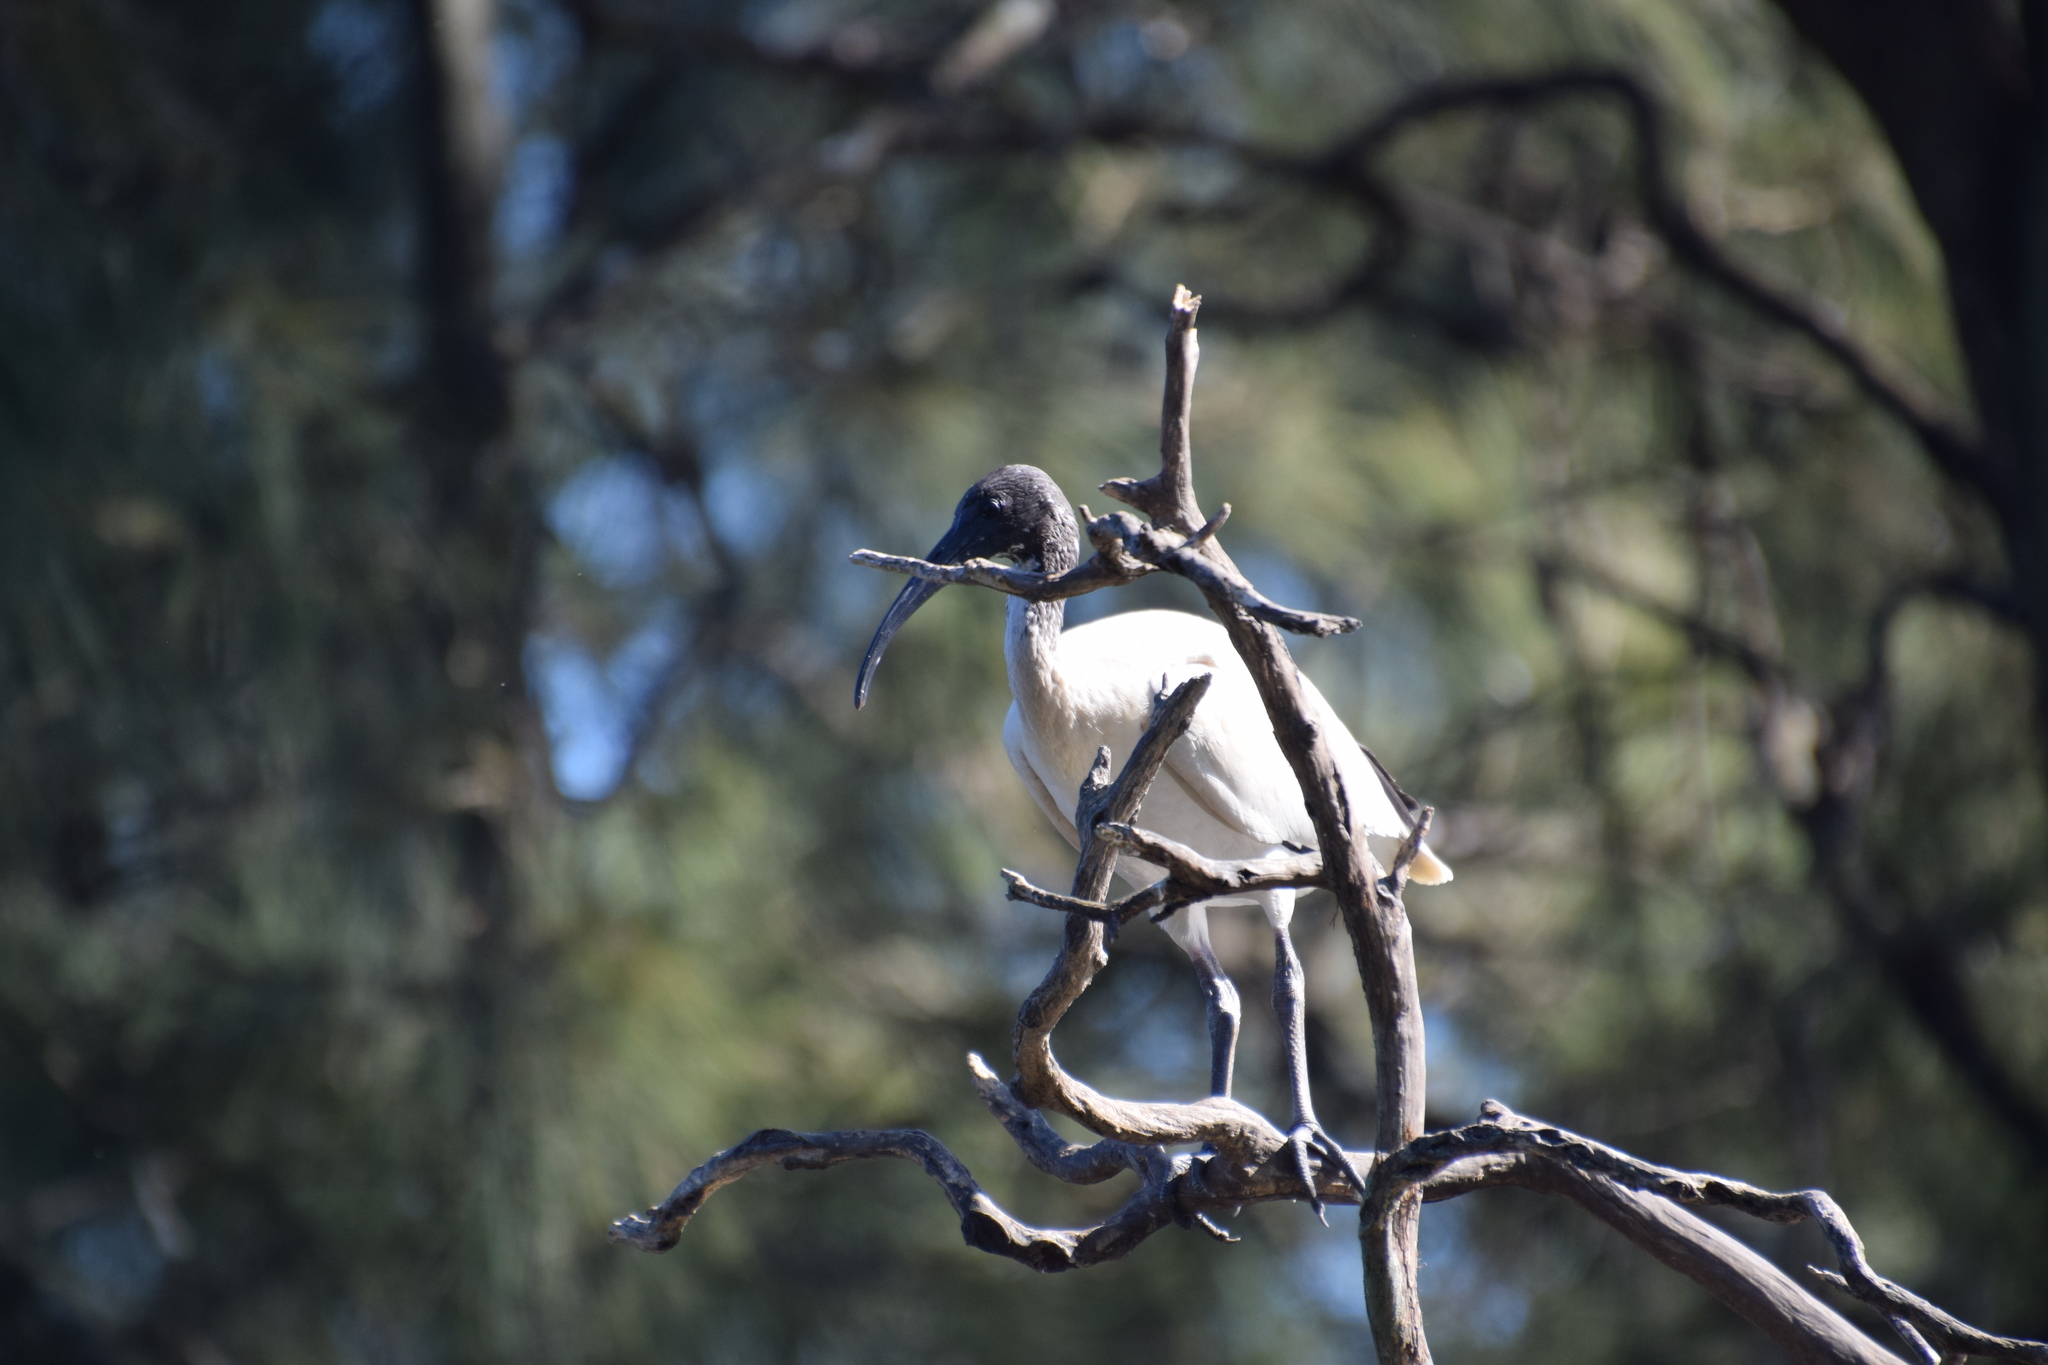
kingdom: Animalia
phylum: Chordata
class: Aves
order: Pelecaniformes
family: Threskiornithidae
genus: Threskiornis
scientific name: Threskiornis molucca
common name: Australian white ibis
